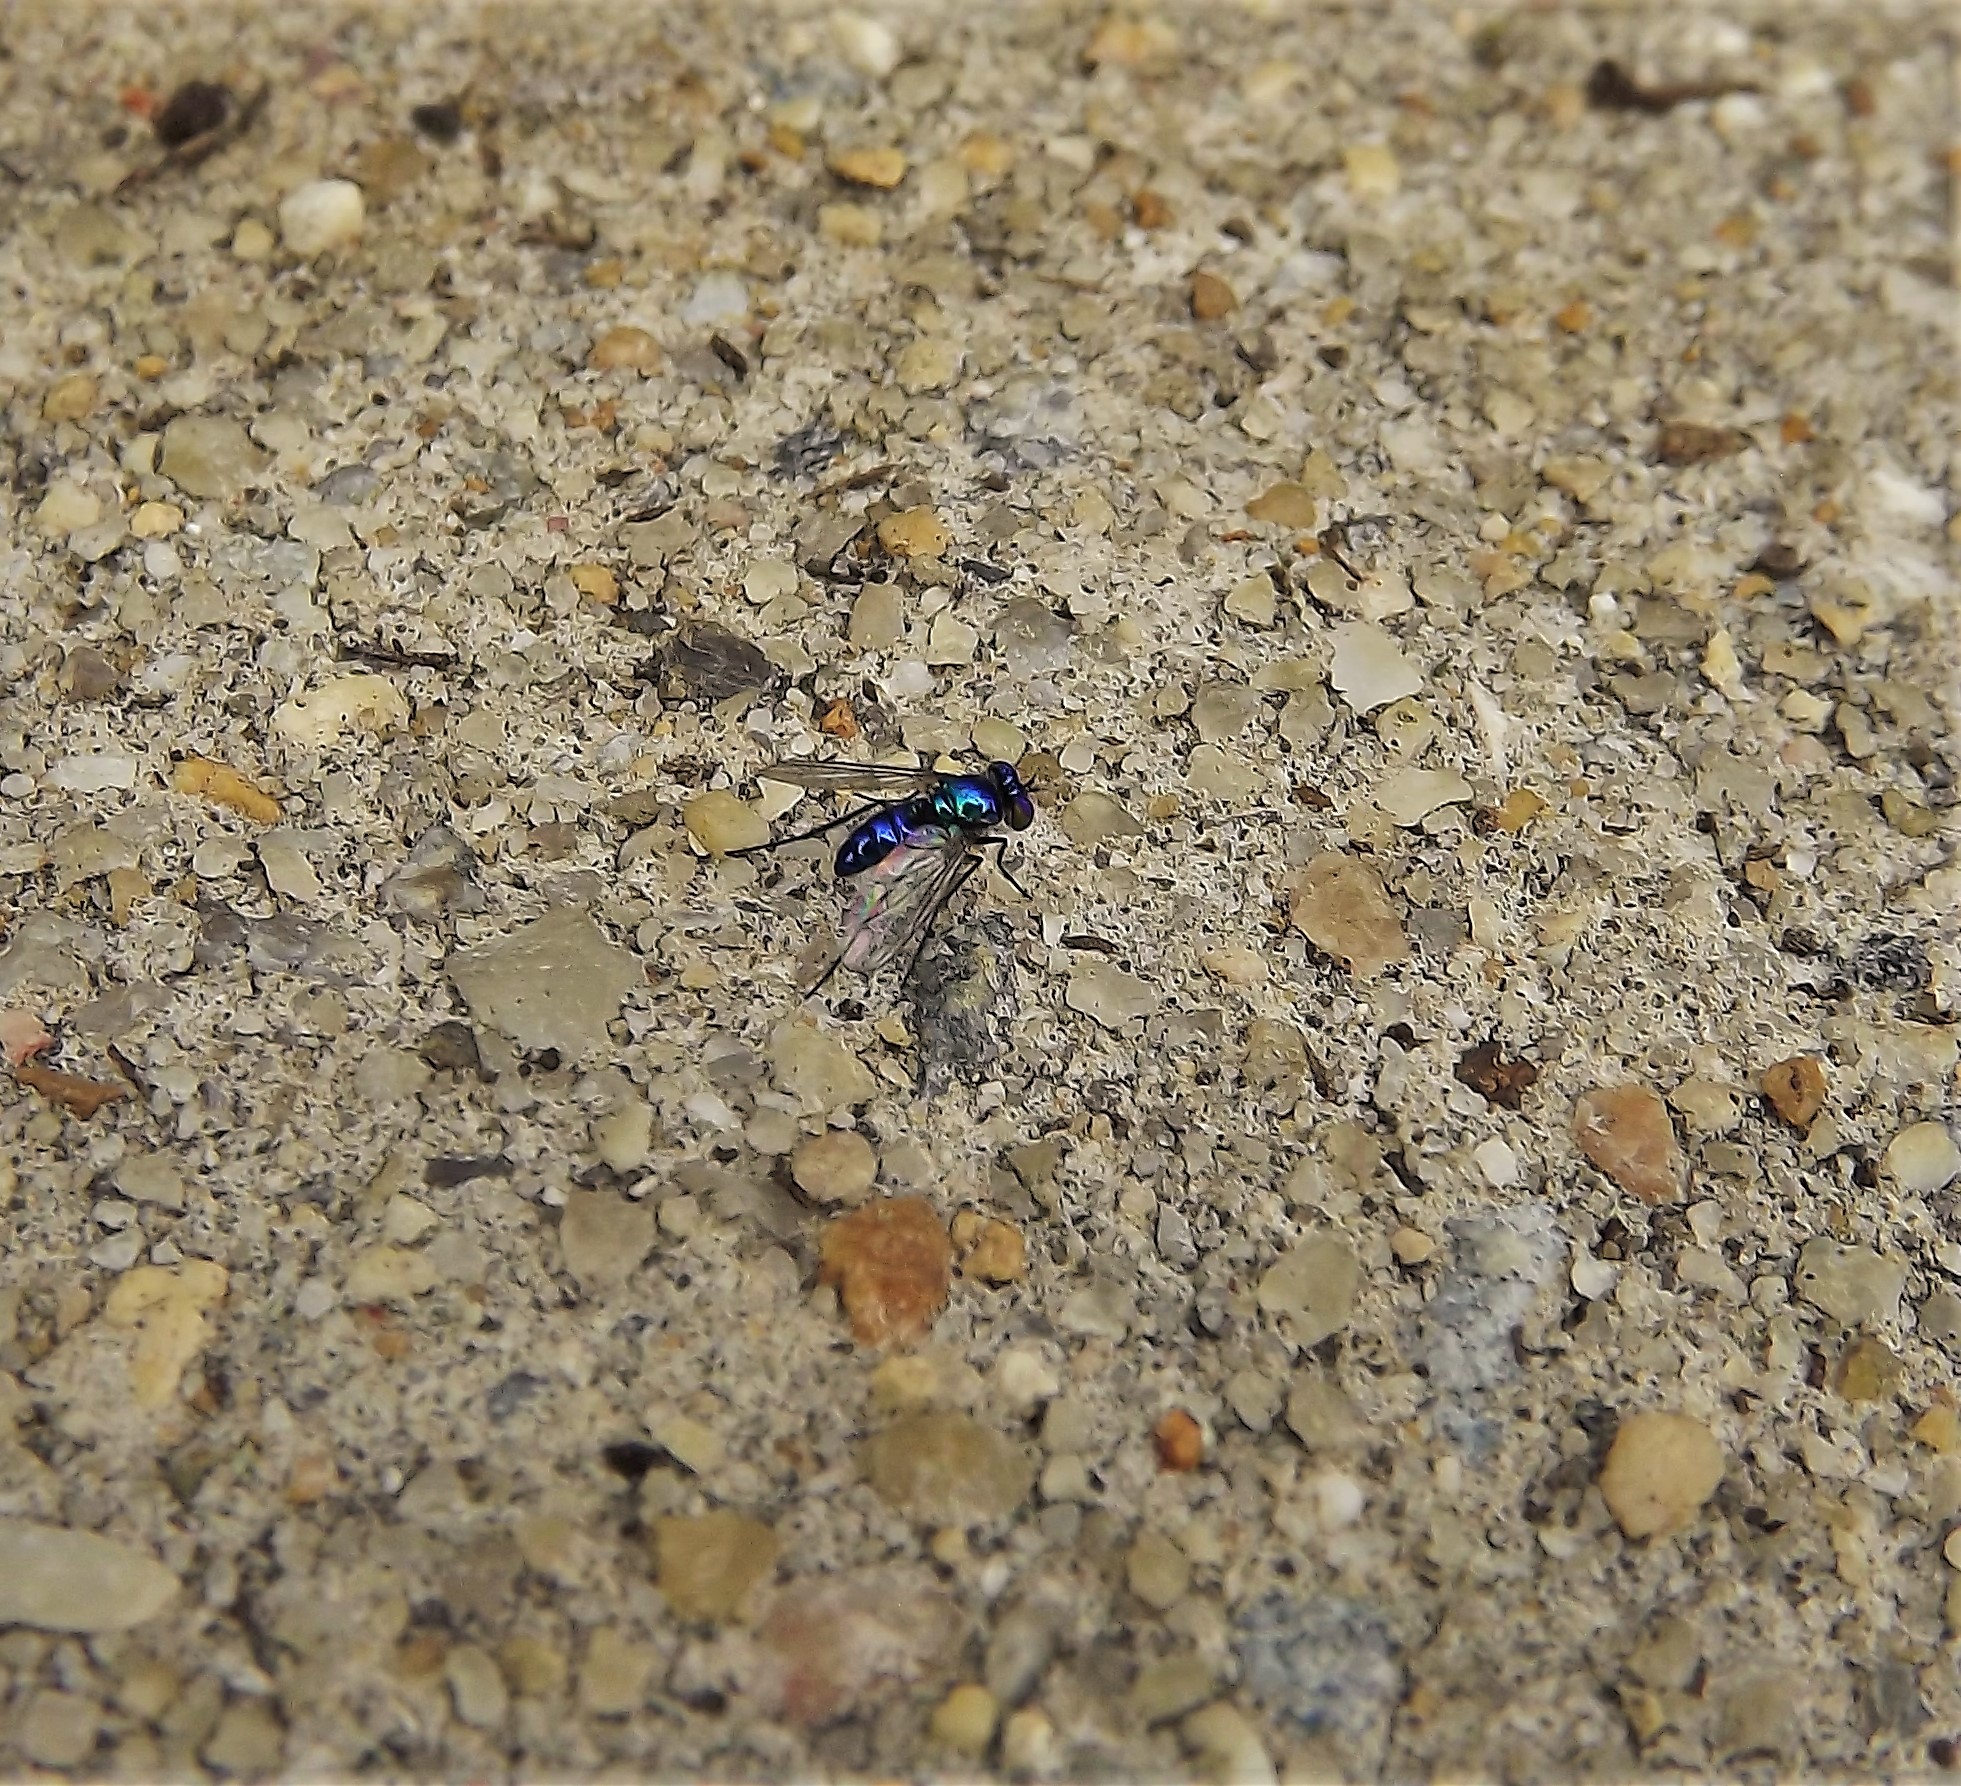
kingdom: Animalia
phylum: Arthropoda
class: Insecta
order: Diptera
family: Dolichopodidae
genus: Condylostylus
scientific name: Condylostylus mundus
